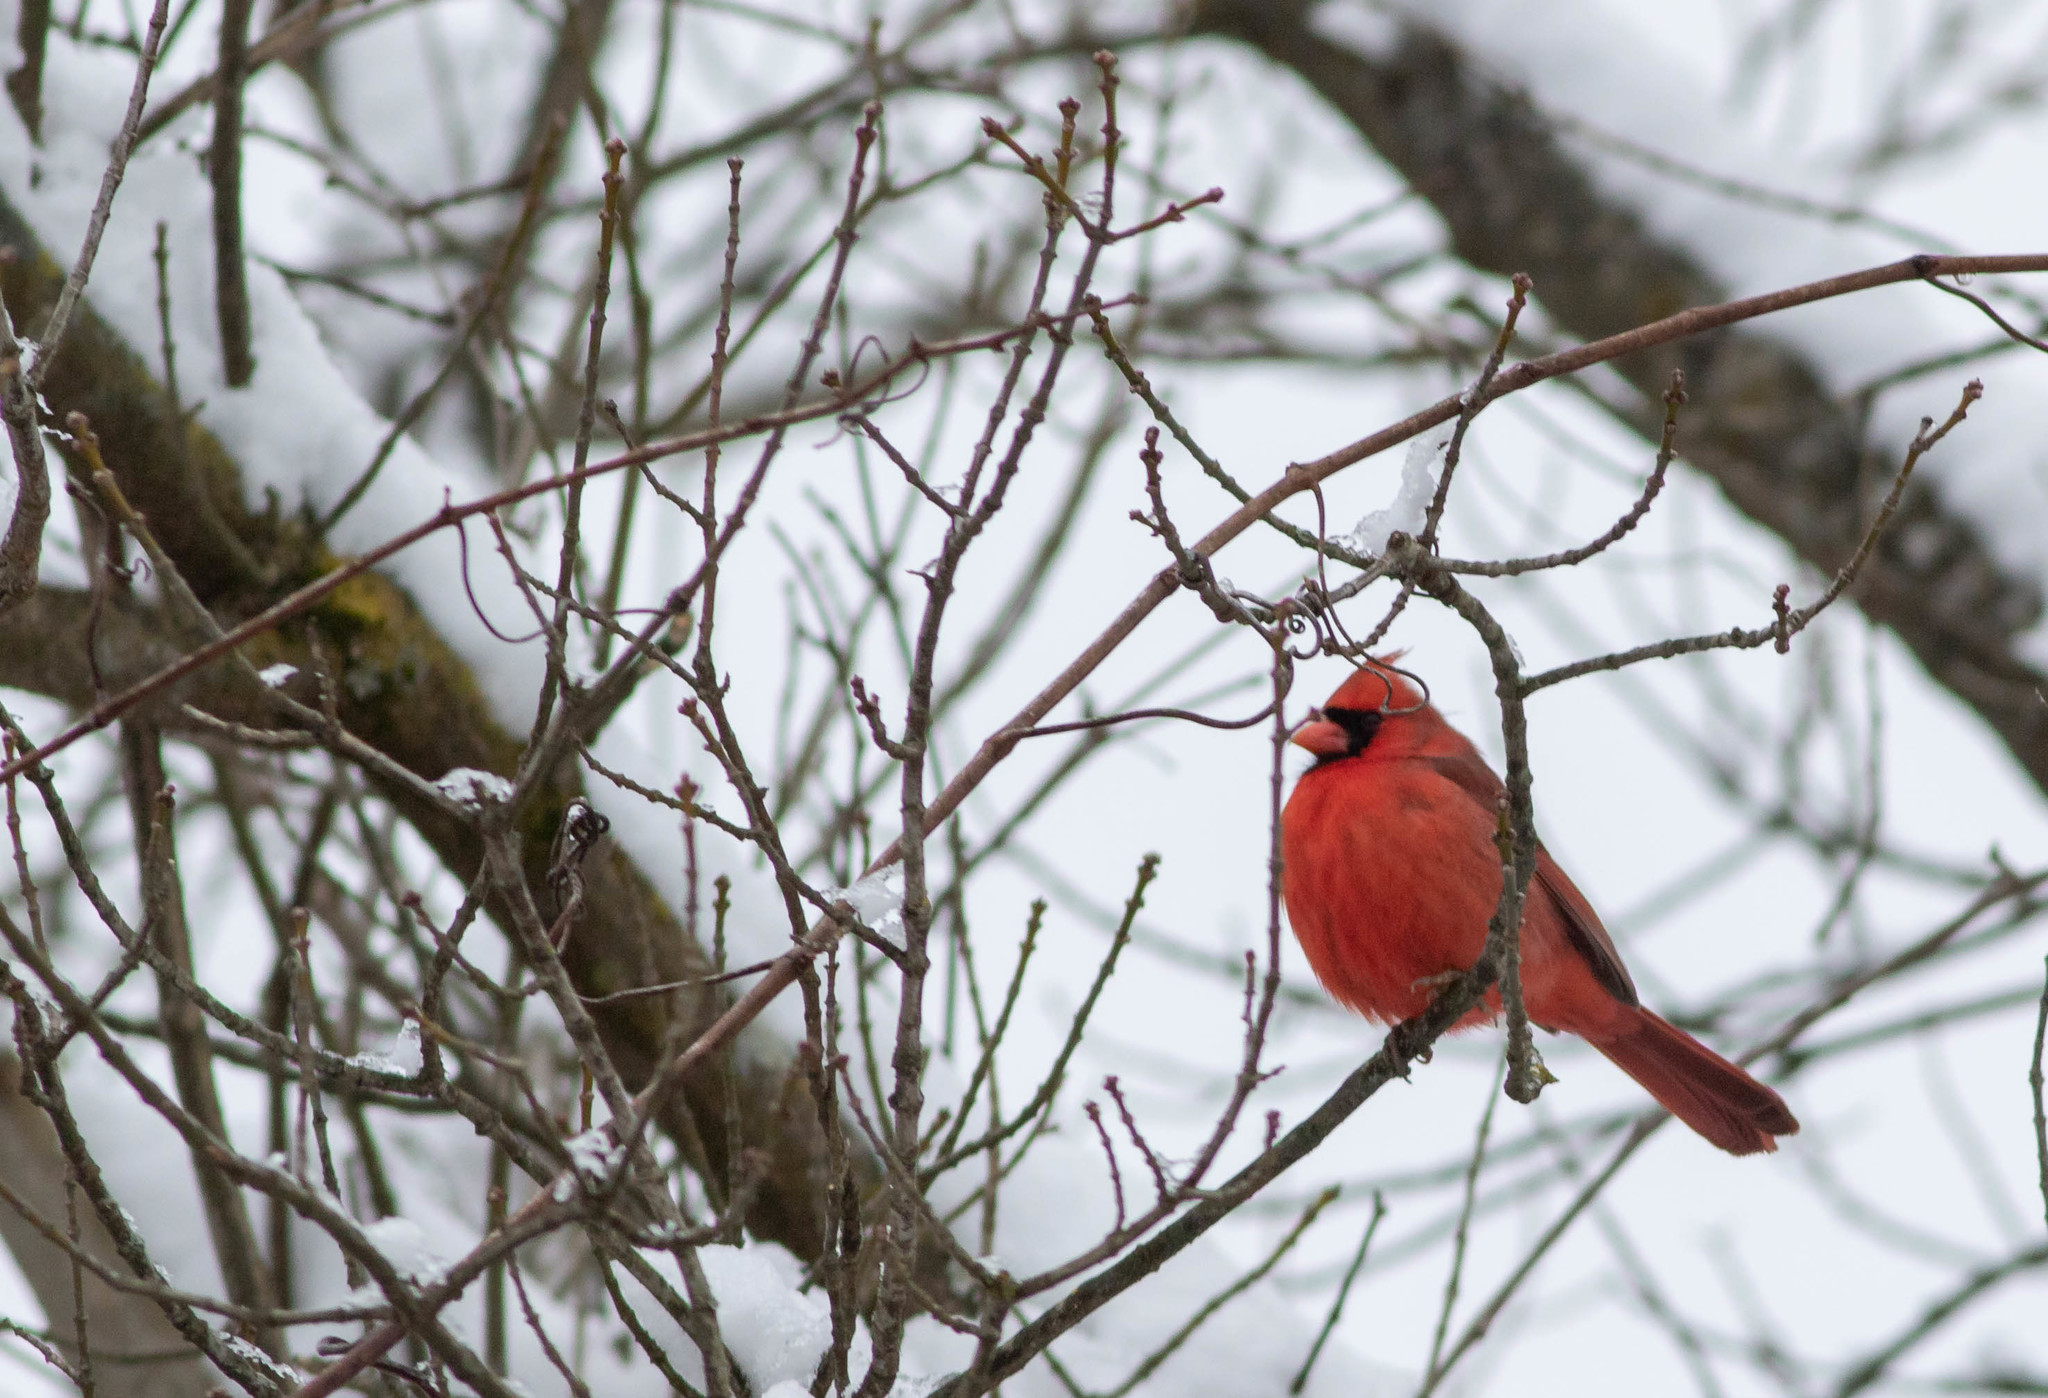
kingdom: Animalia
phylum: Chordata
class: Aves
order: Passeriformes
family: Cardinalidae
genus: Cardinalis
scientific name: Cardinalis cardinalis
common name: Northern cardinal
